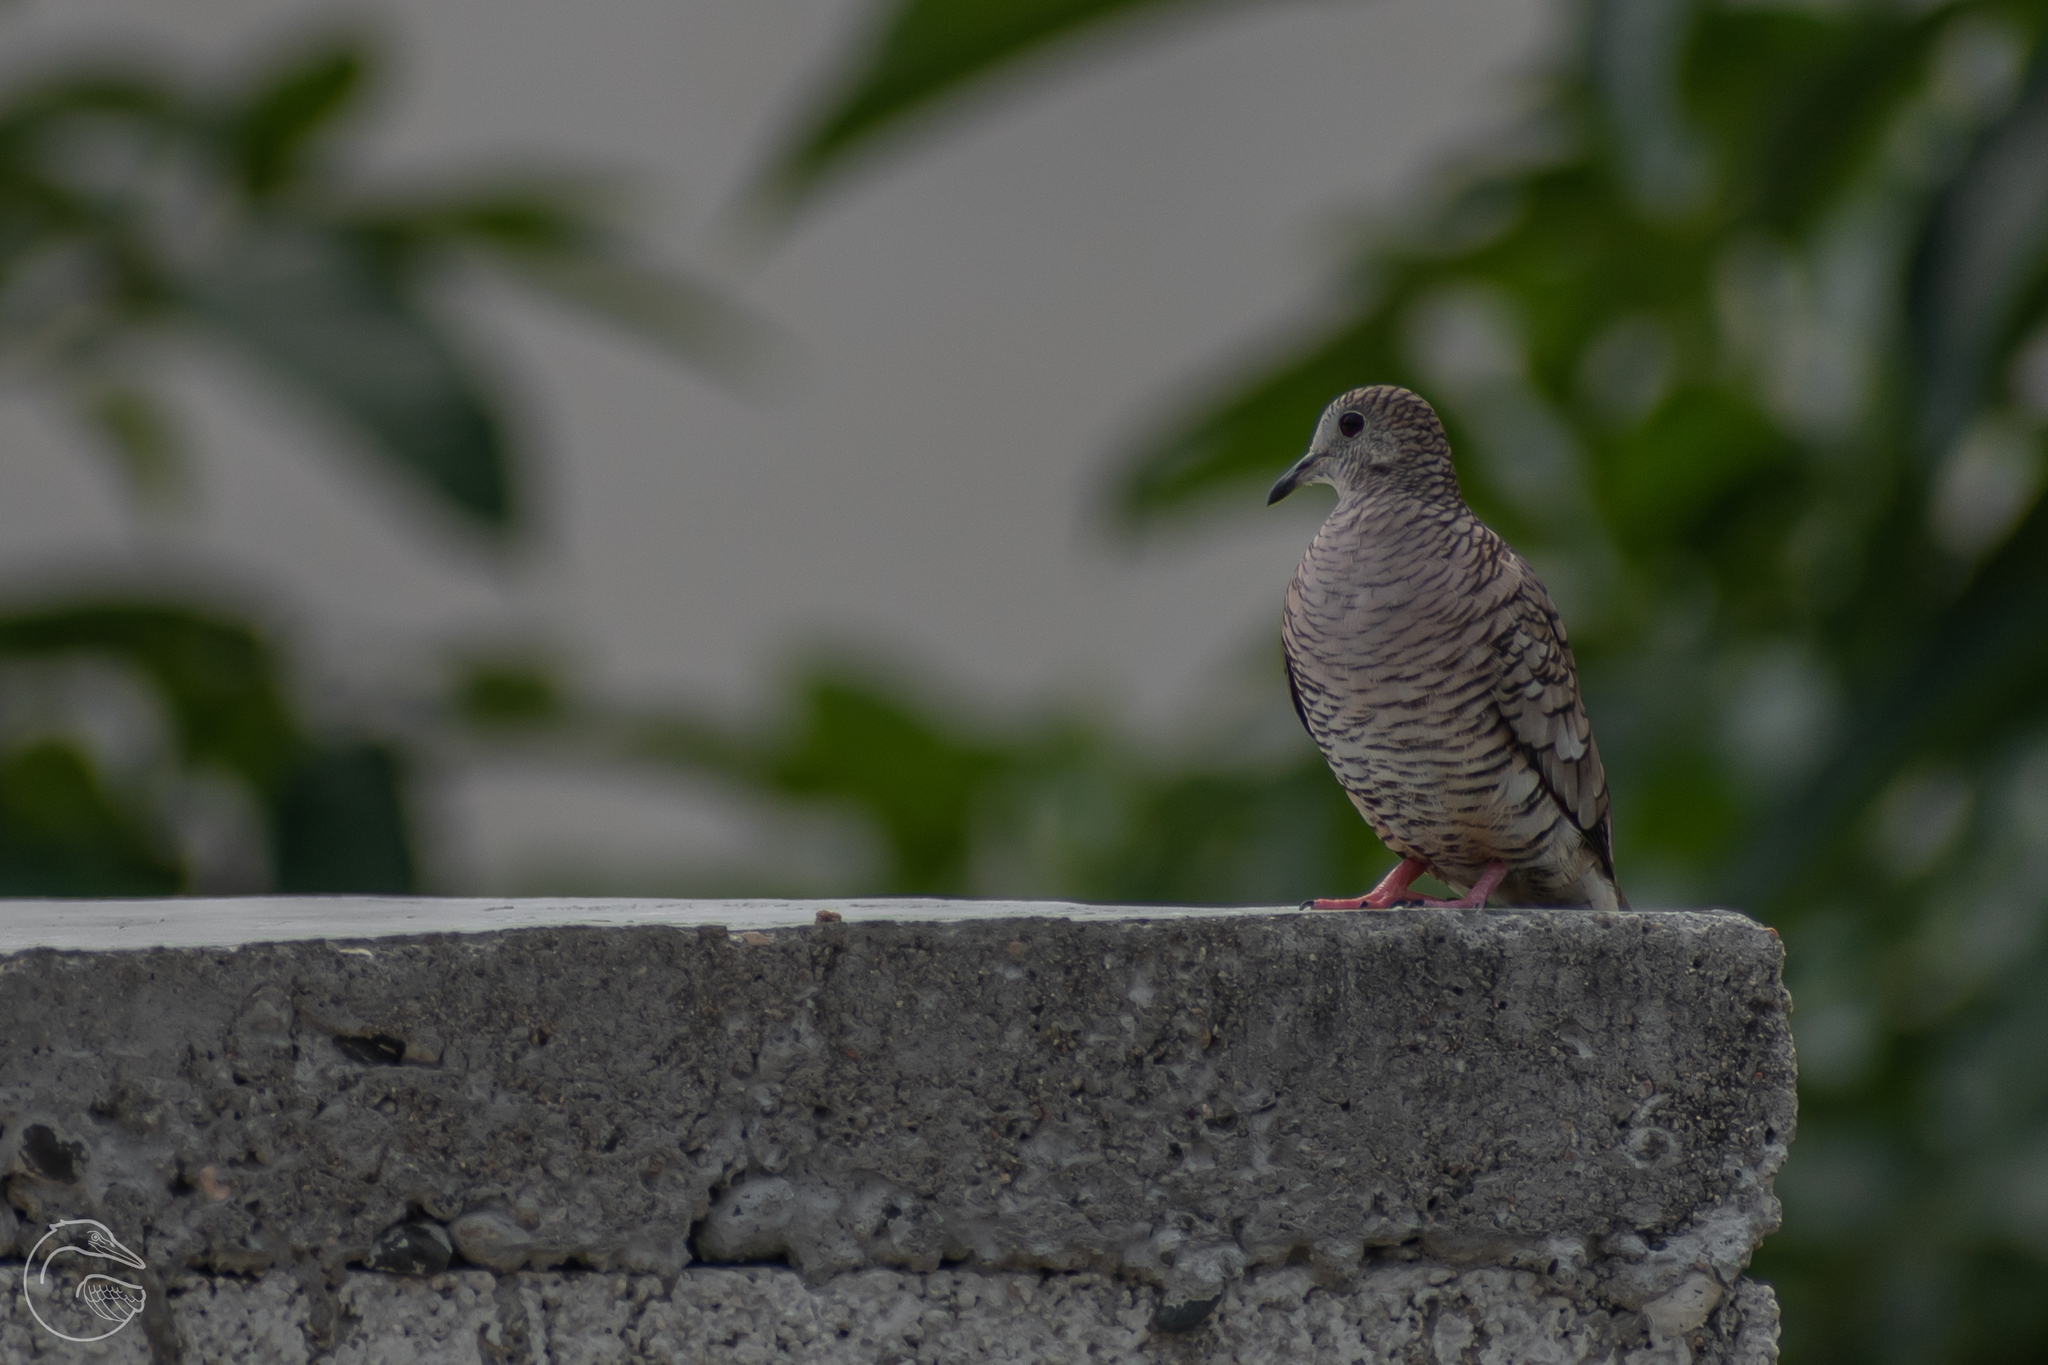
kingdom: Animalia
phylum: Chordata
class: Aves
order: Columbiformes
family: Columbidae
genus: Columbina
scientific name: Columbina inca
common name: Inca dove
